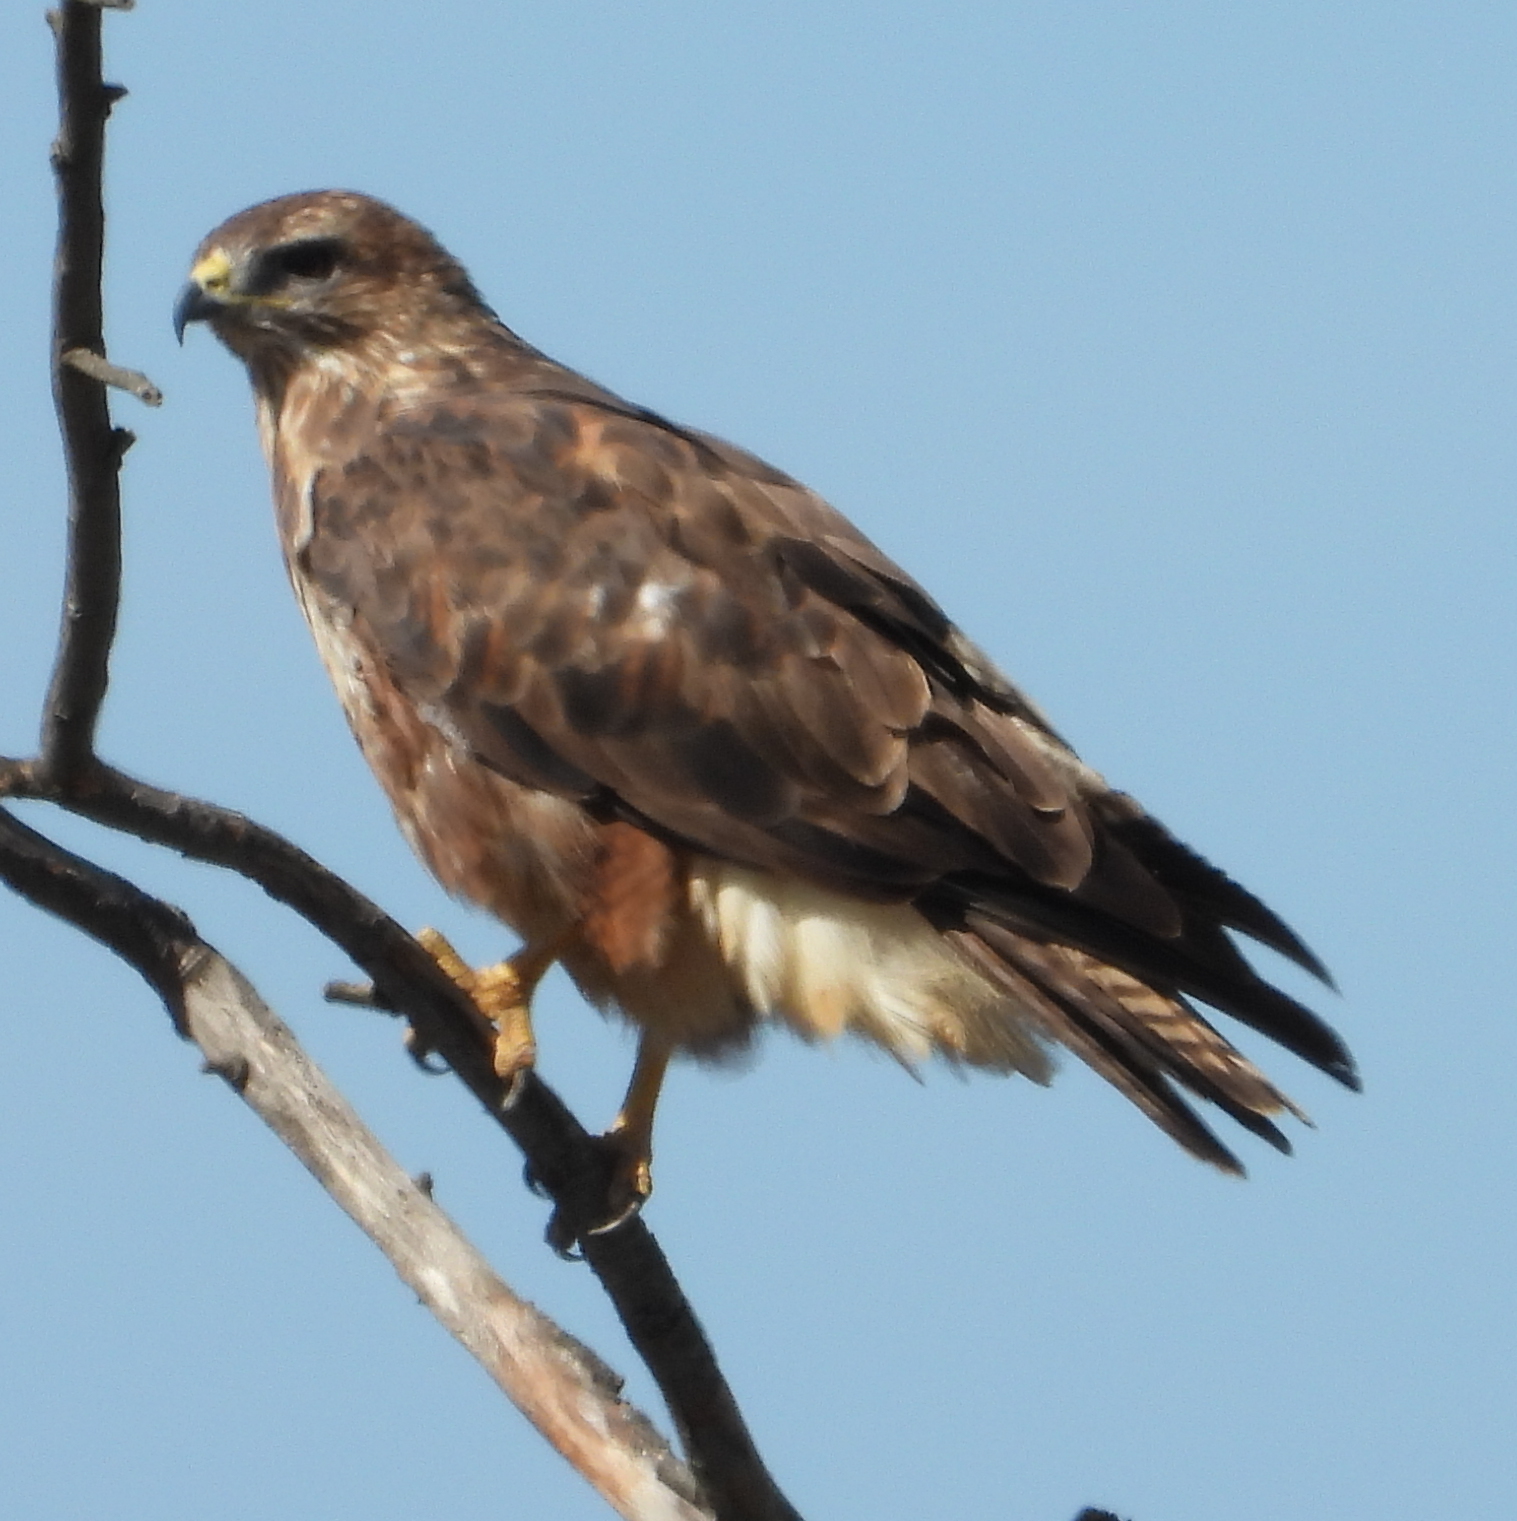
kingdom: Animalia
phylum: Chordata
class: Aves
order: Accipitriformes
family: Accipitridae
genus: Buteo
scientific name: Buteo buteo
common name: Common buzzard
